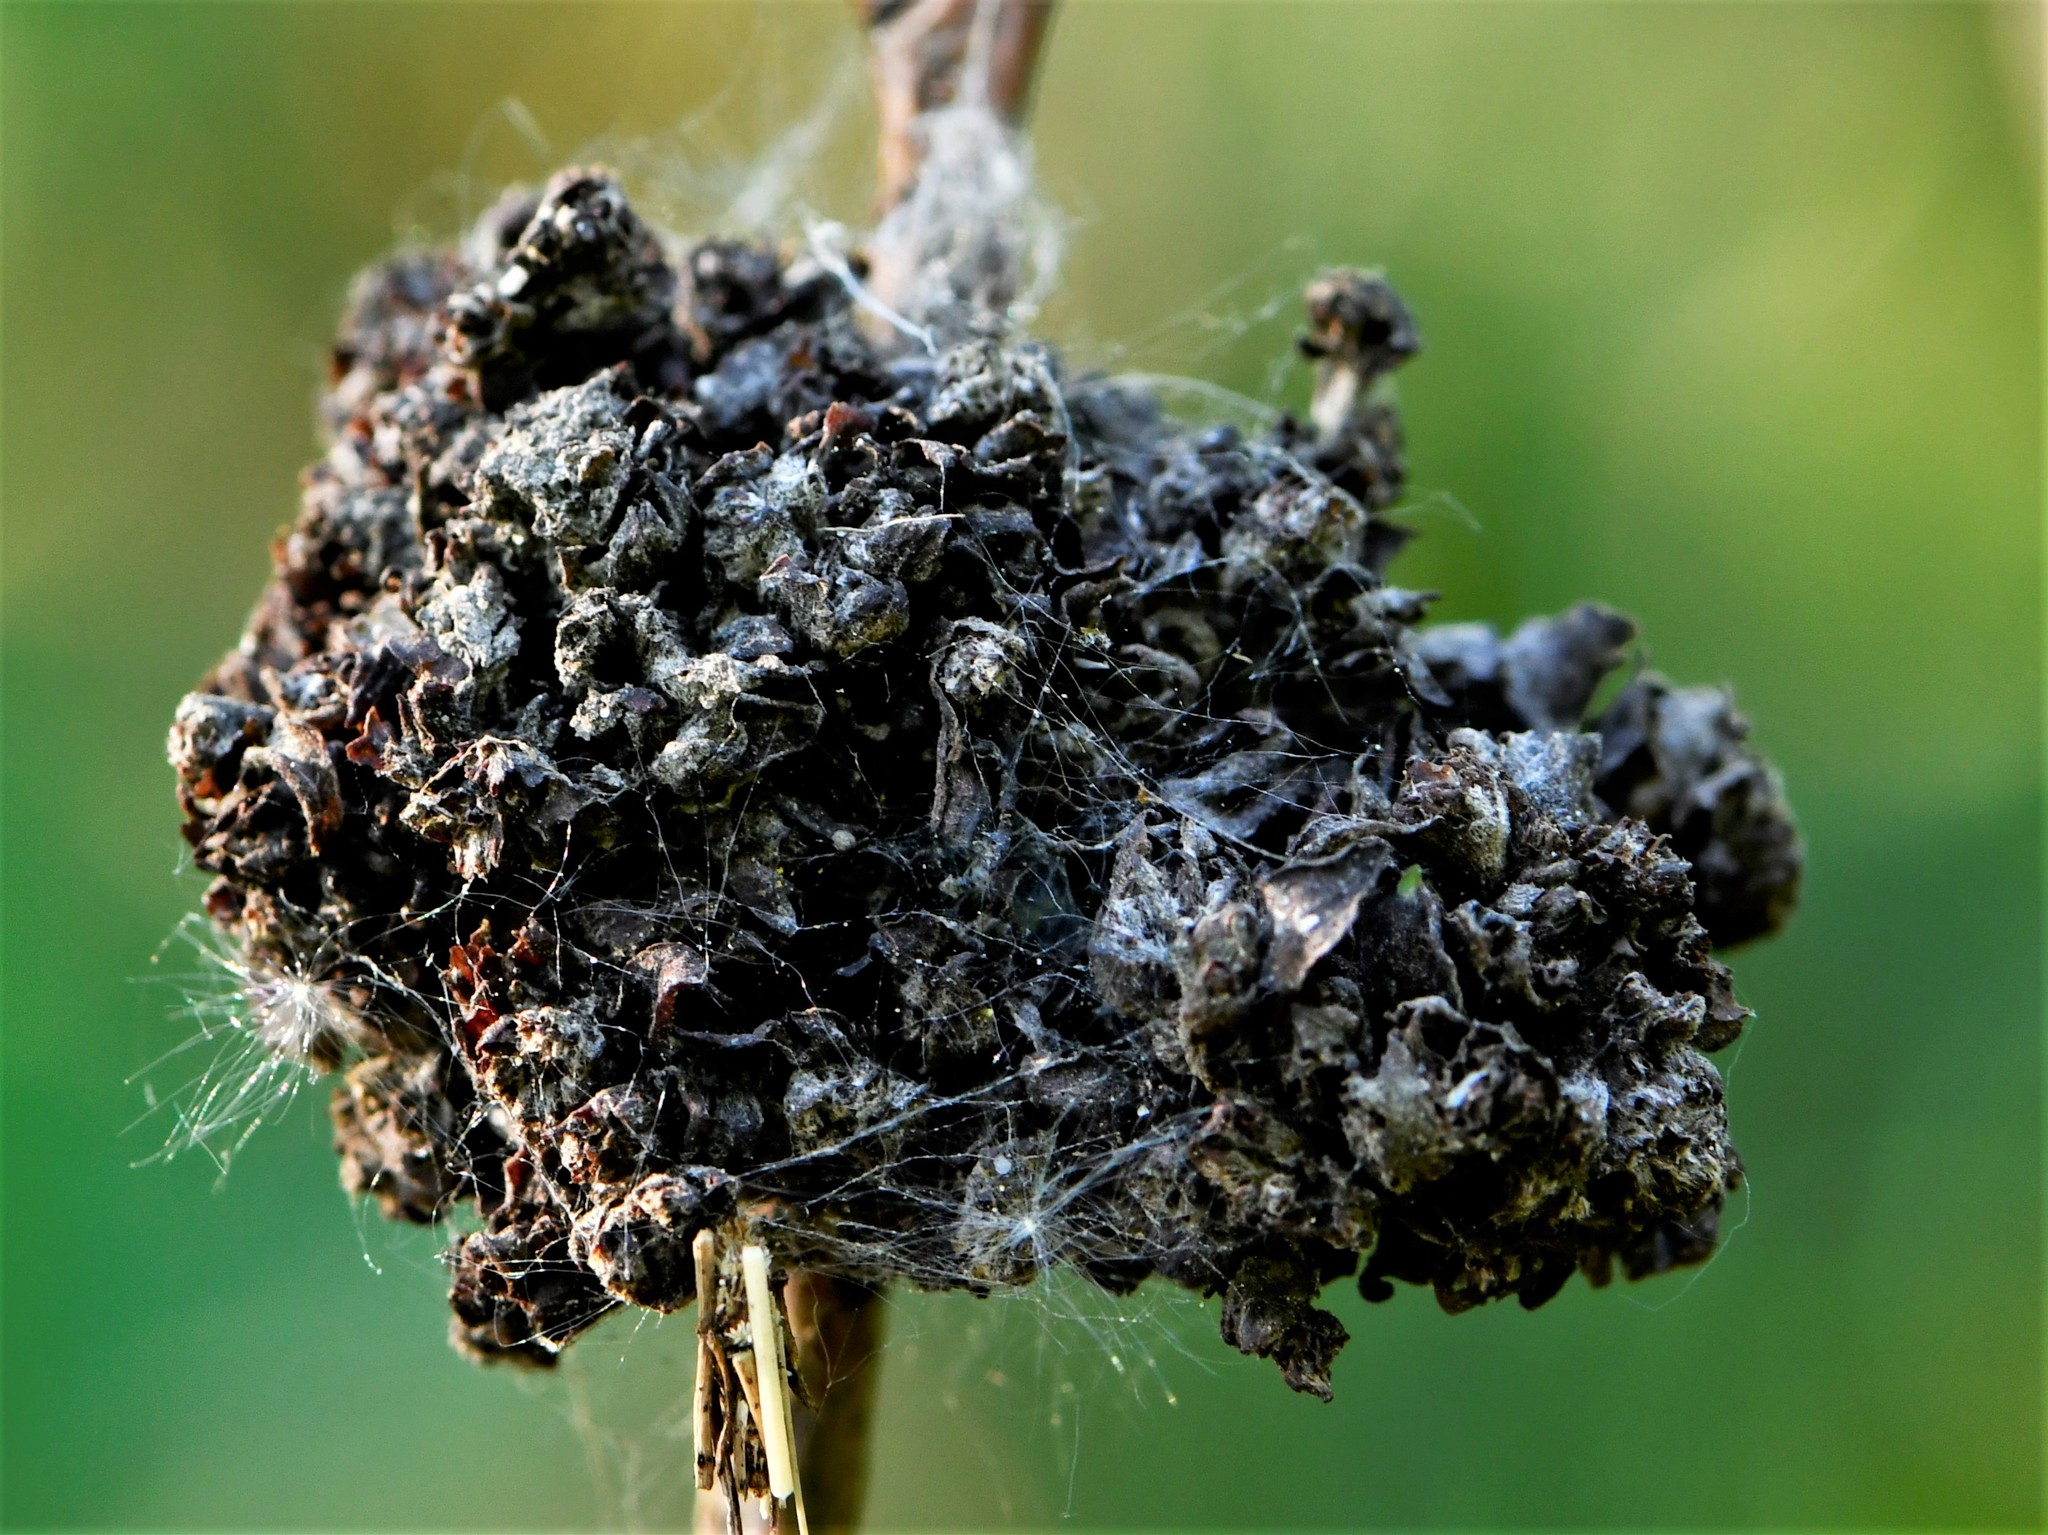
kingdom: Bacteria
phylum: Proteobacteria
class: Alphaproteobacteria
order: Rhizobiales
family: Rhizobiaceae
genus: Rhizobium
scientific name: Rhizobium Agrobacterium radiobacter
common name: Bacterial crown gall
